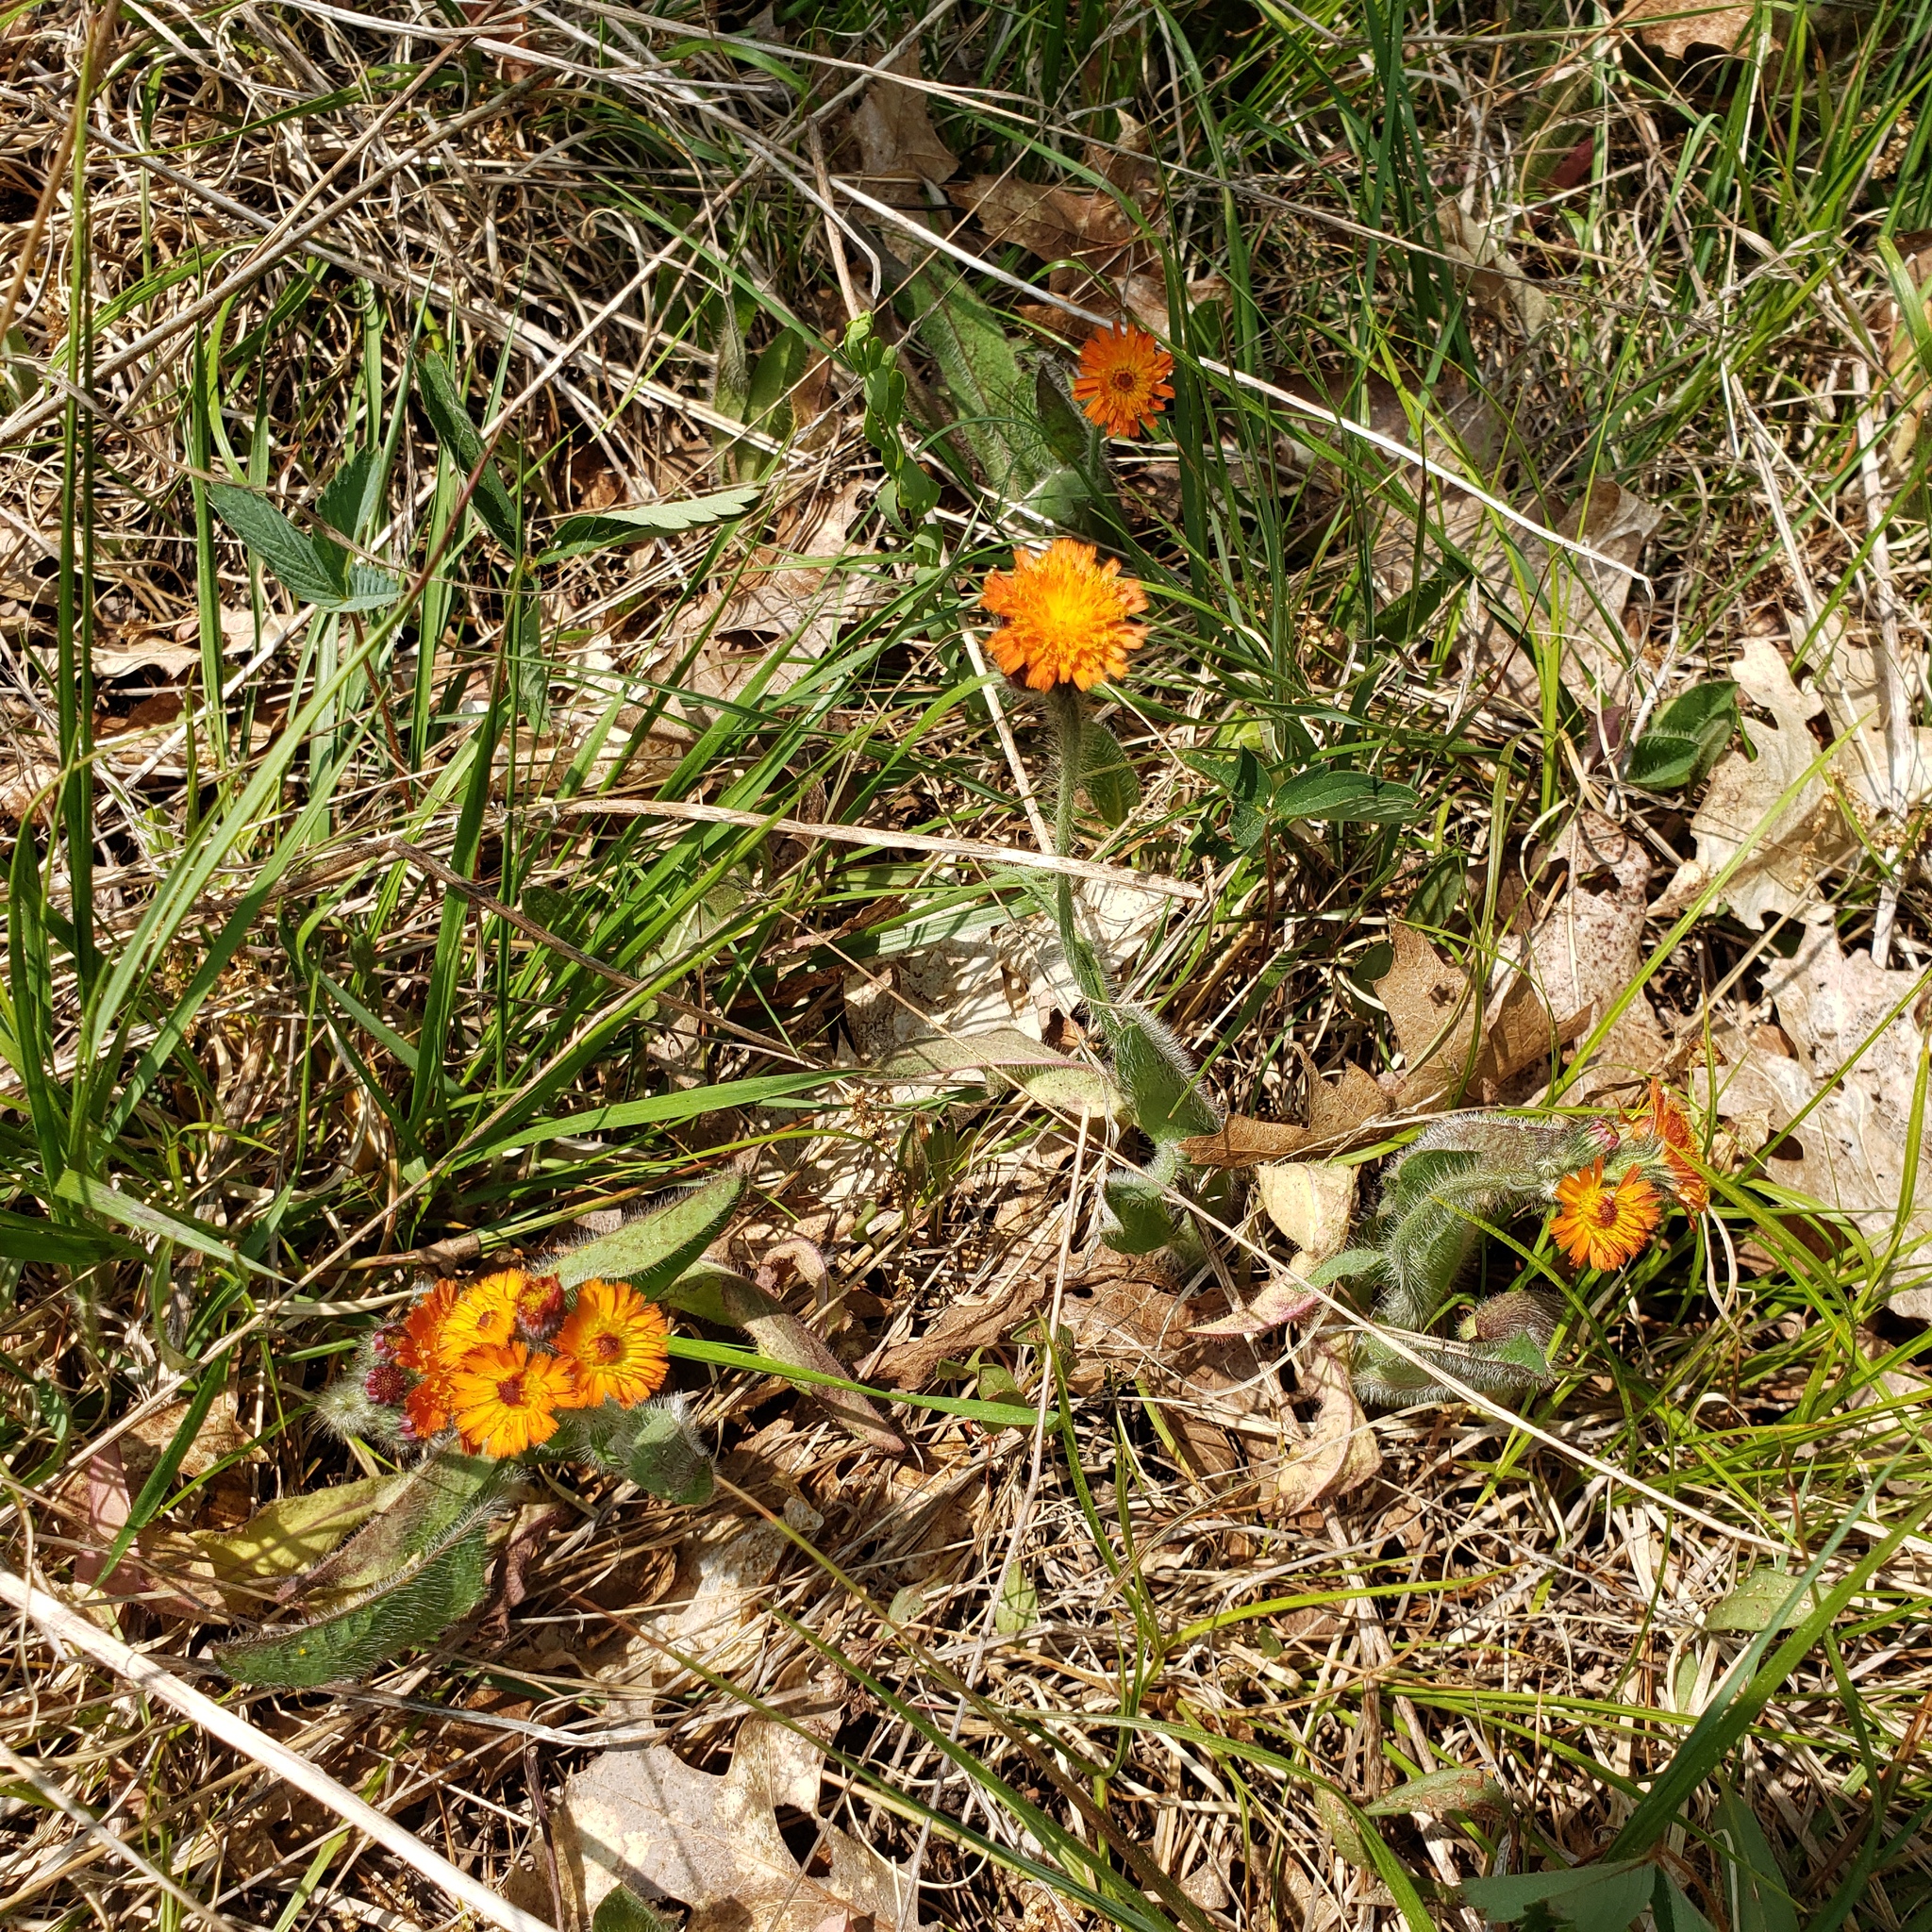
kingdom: Plantae
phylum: Tracheophyta
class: Magnoliopsida
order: Asterales
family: Asteraceae
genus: Pilosella
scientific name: Pilosella aurantiaca
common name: Fox-and-cubs
